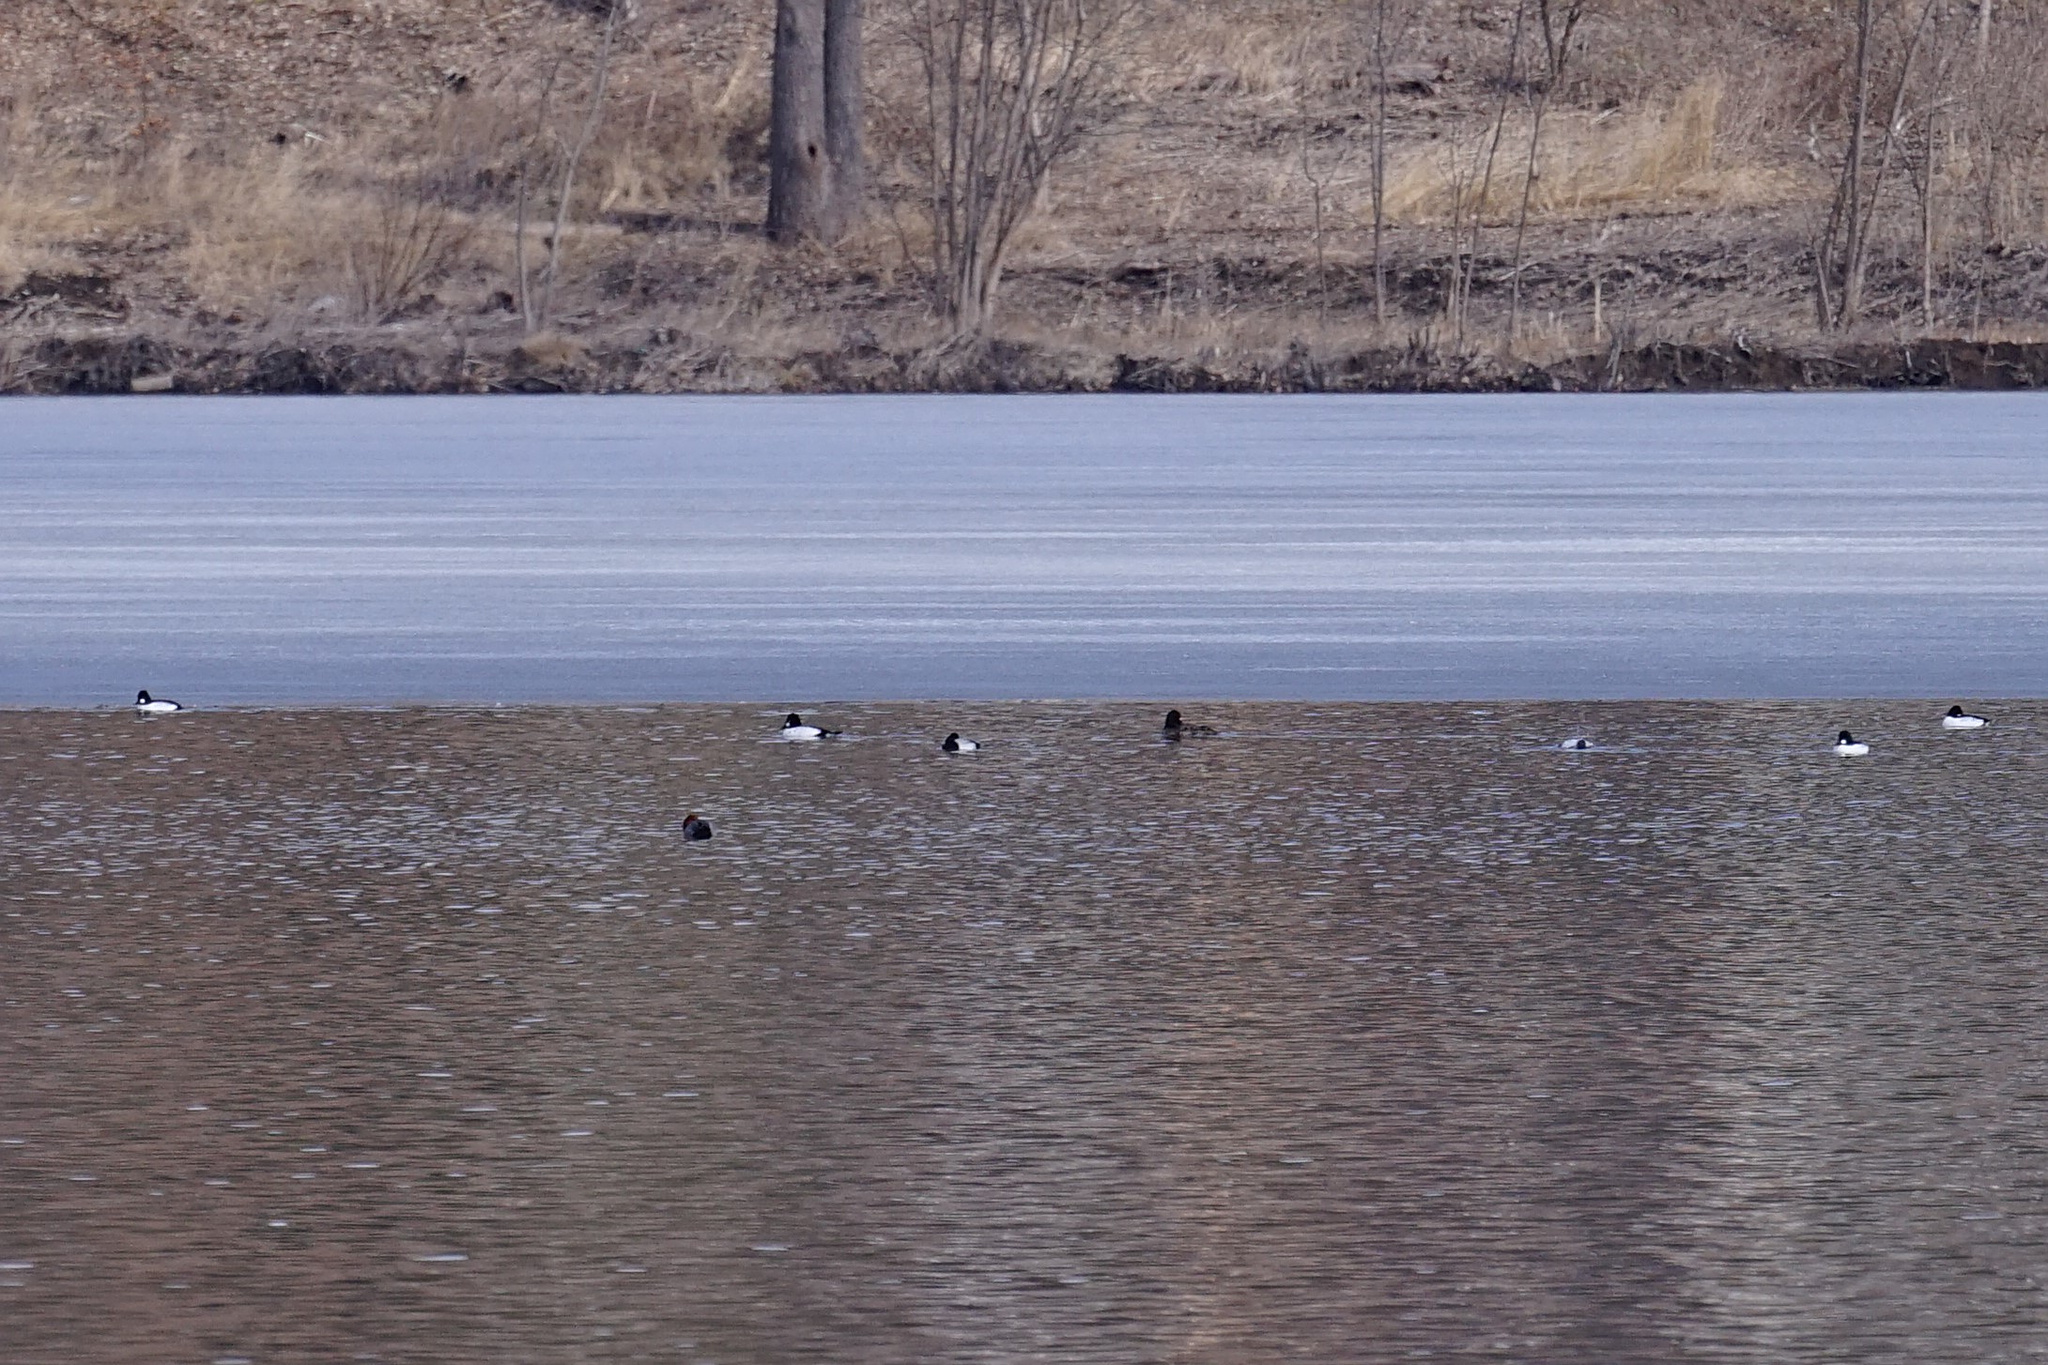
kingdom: Animalia
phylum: Chordata
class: Aves
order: Anseriformes
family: Anatidae
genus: Bucephala
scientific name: Bucephala clangula
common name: Common goldeneye
